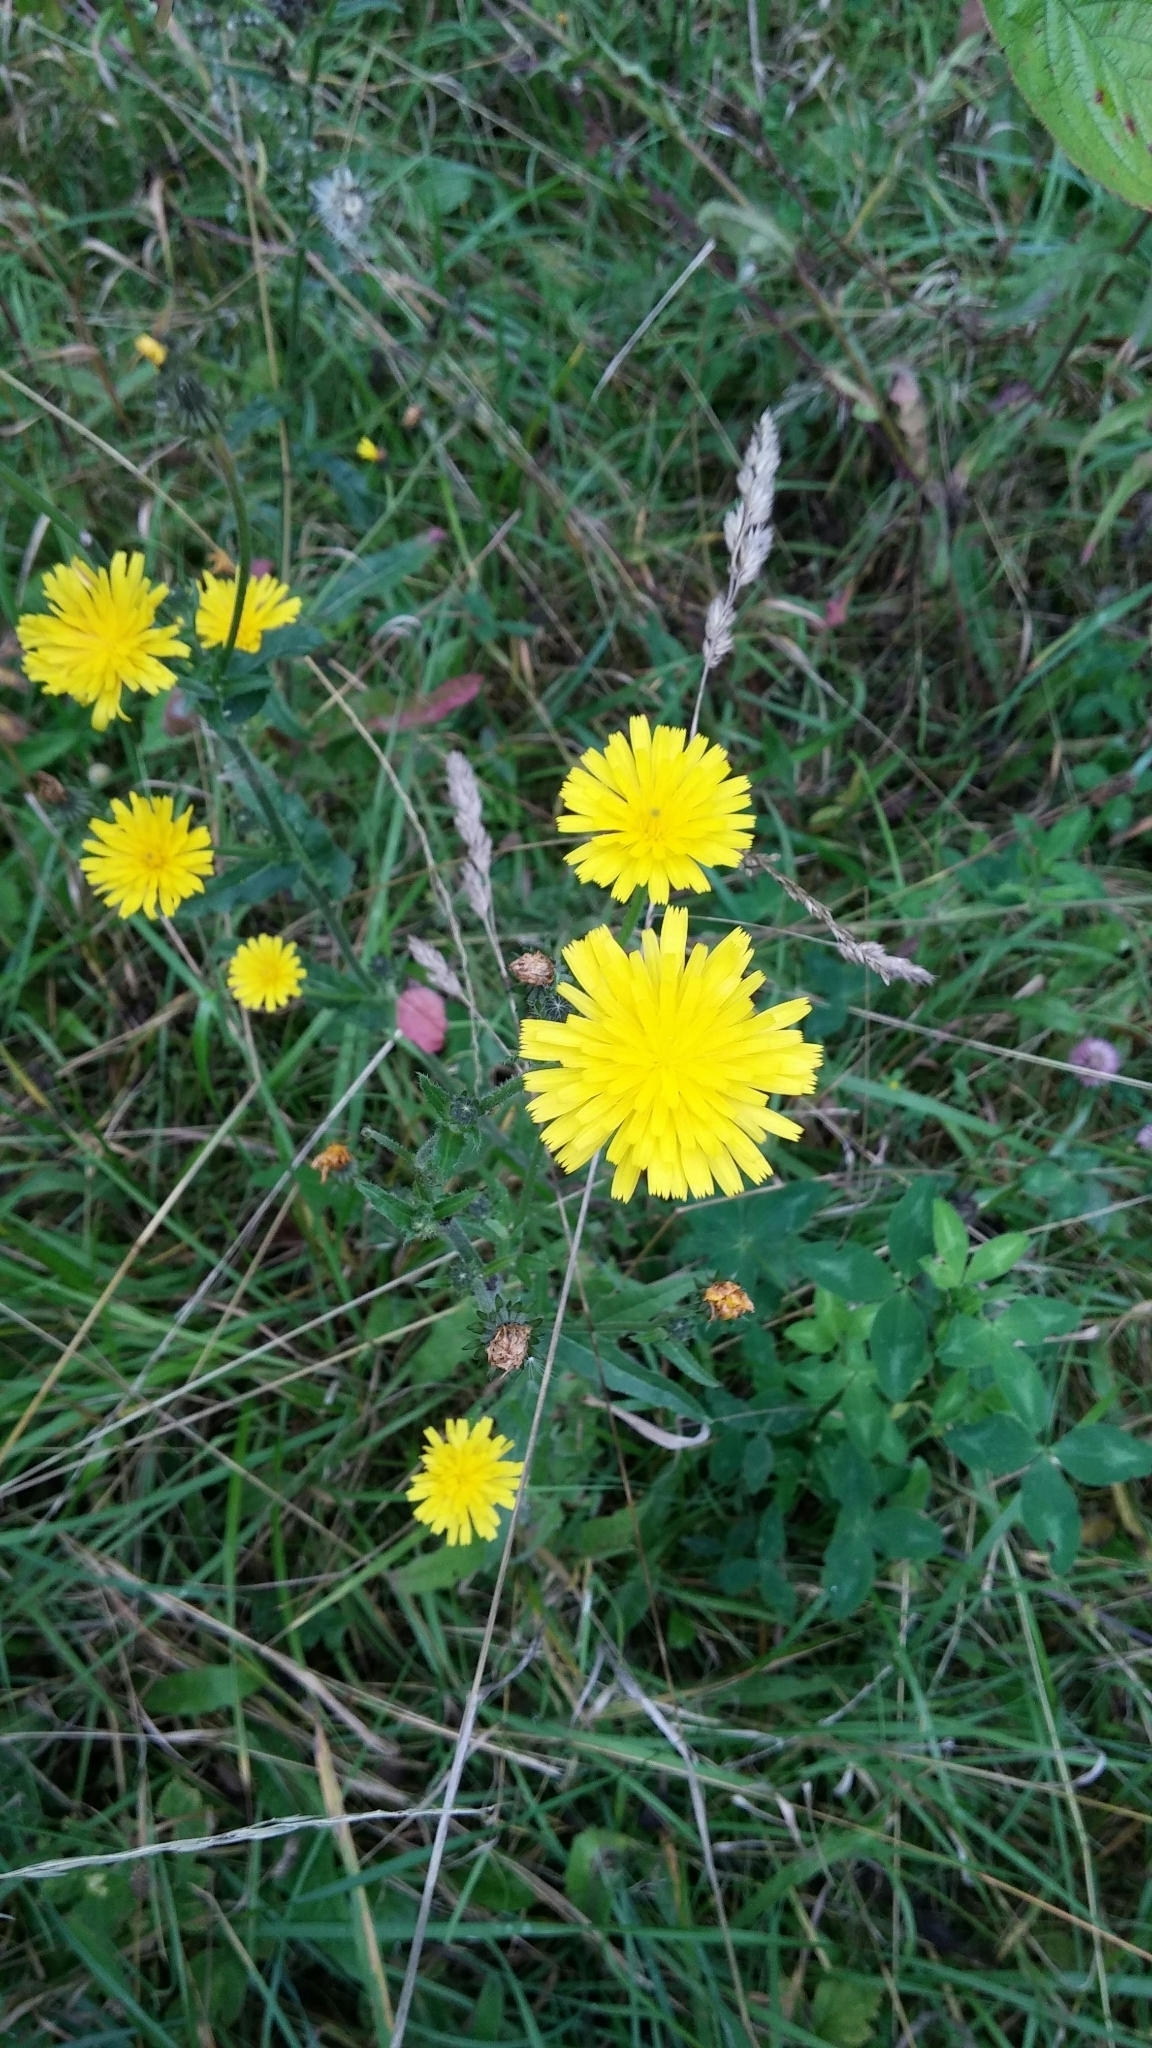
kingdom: Plantae
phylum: Tracheophyta
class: Magnoliopsida
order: Asterales
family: Asteraceae
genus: Picris
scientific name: Picris hieracioides
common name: Hawkweed oxtongue
